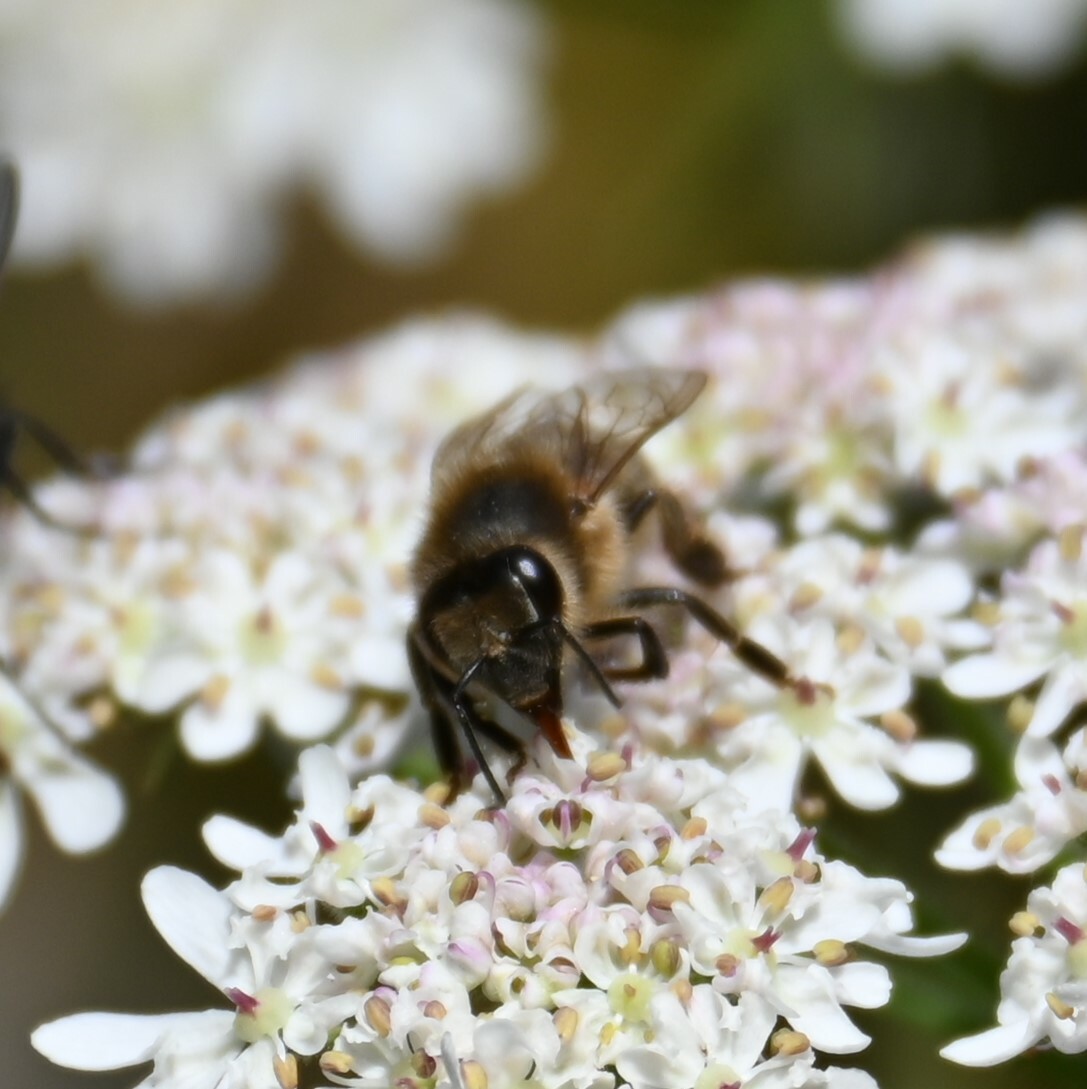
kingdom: Animalia
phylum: Arthropoda
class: Insecta
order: Hymenoptera
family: Apidae
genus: Apis
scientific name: Apis mellifera
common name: Honey bee
